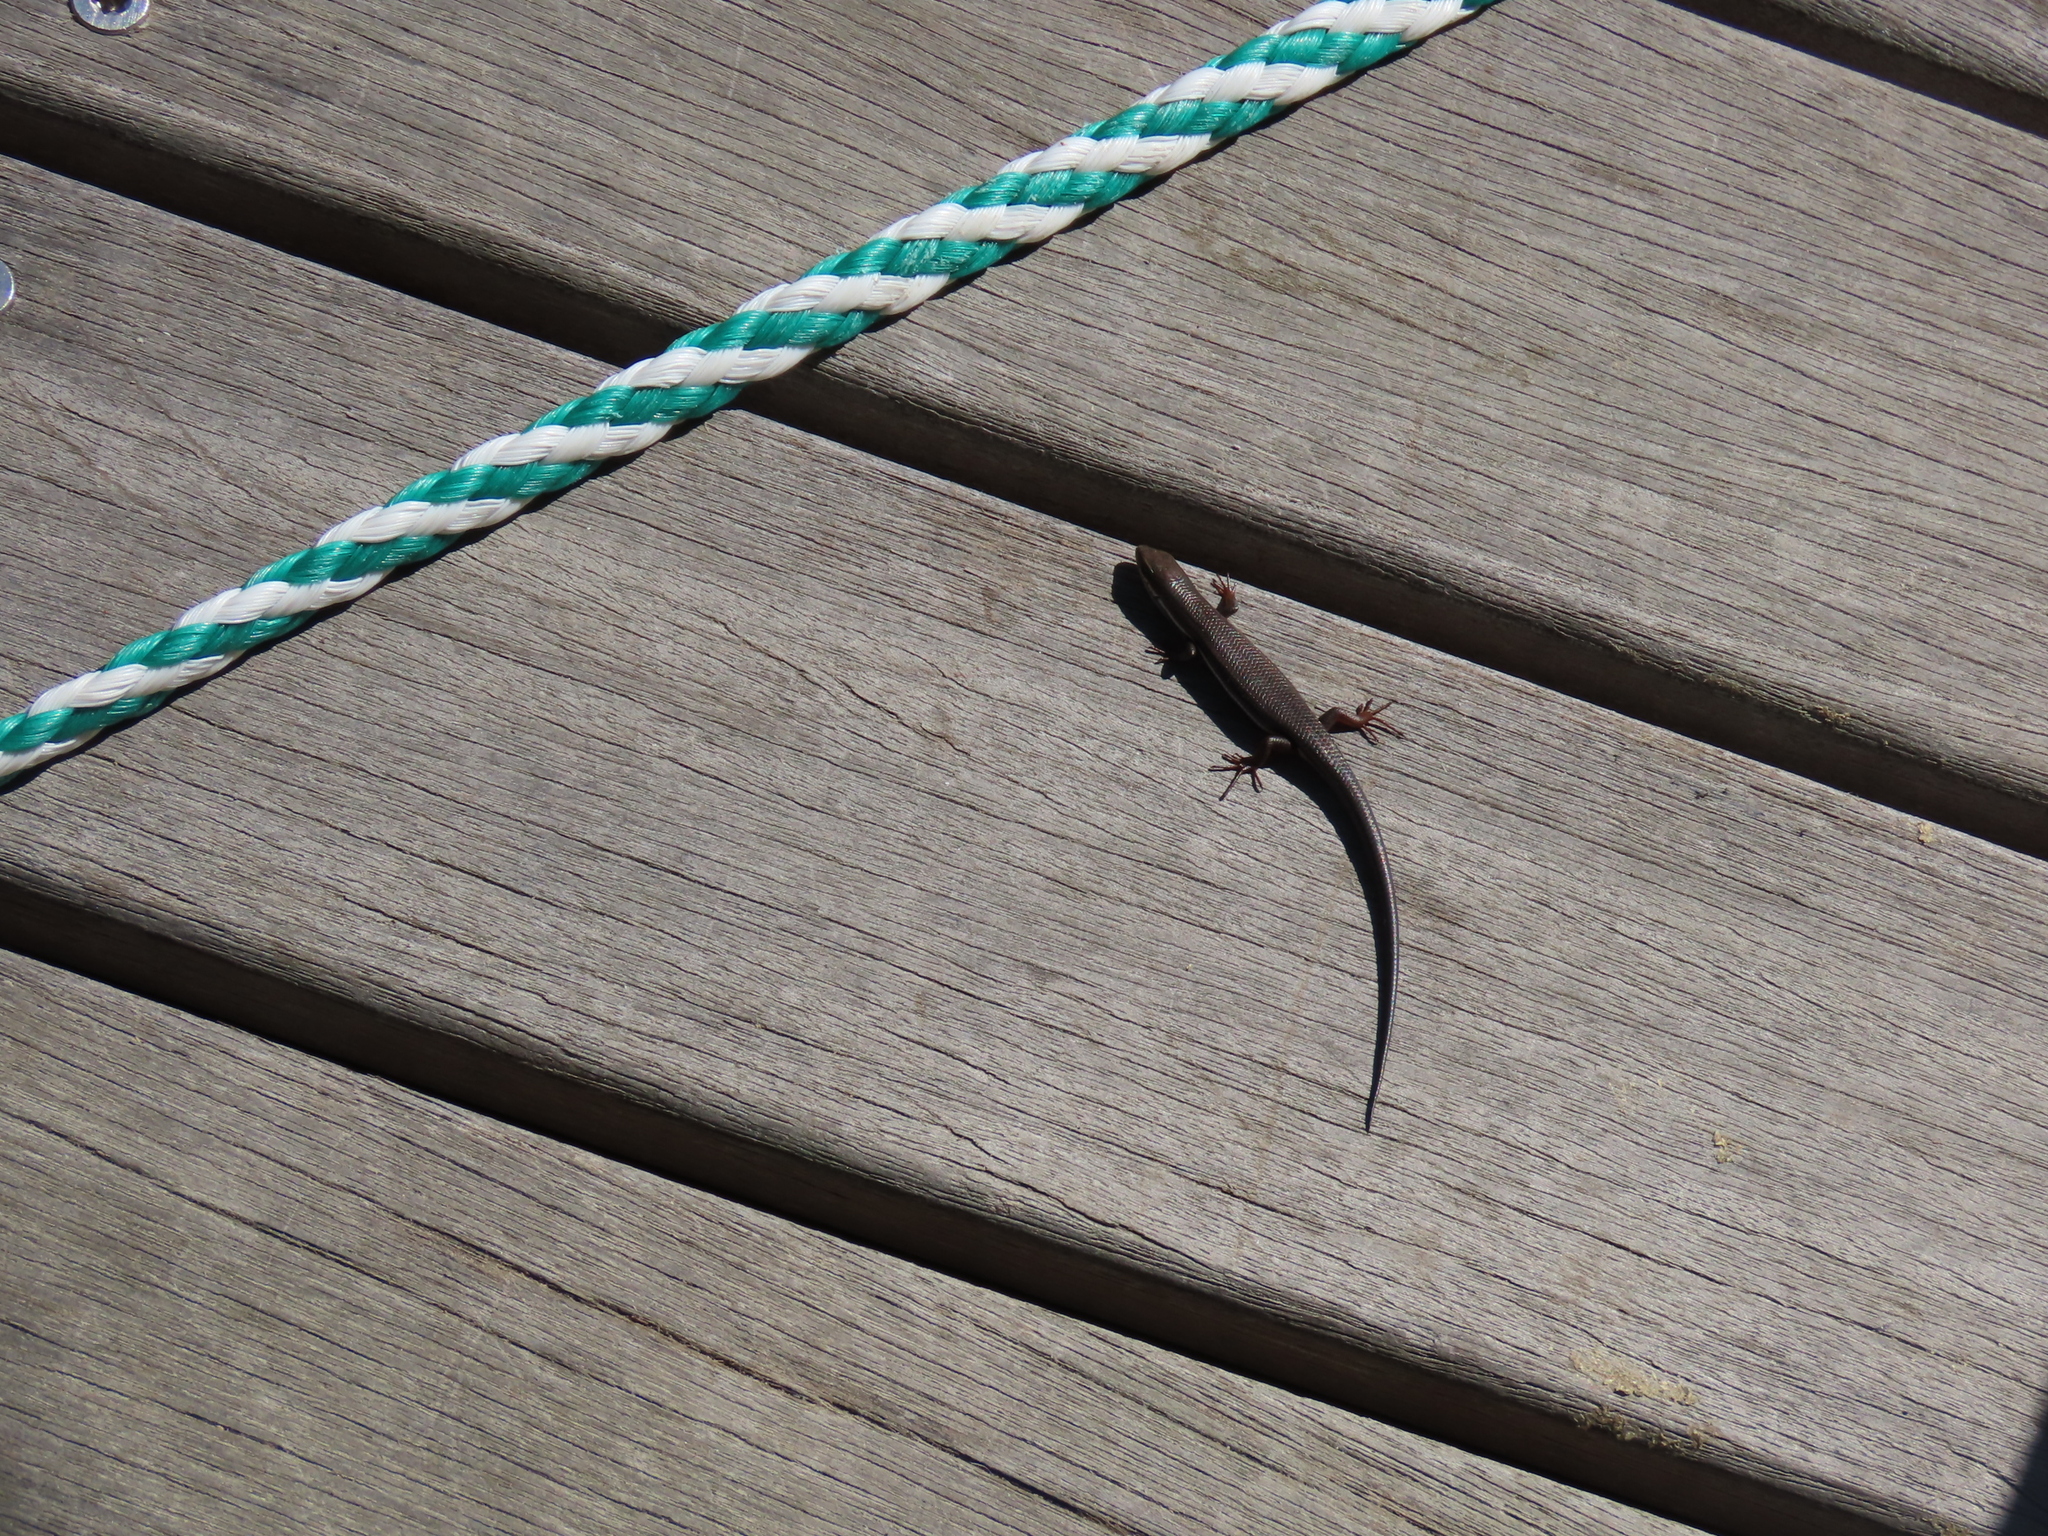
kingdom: Animalia
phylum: Chordata
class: Squamata
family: Scincidae
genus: Trachylepis
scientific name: Trachylepis homalocephala
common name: Red-sided skink
